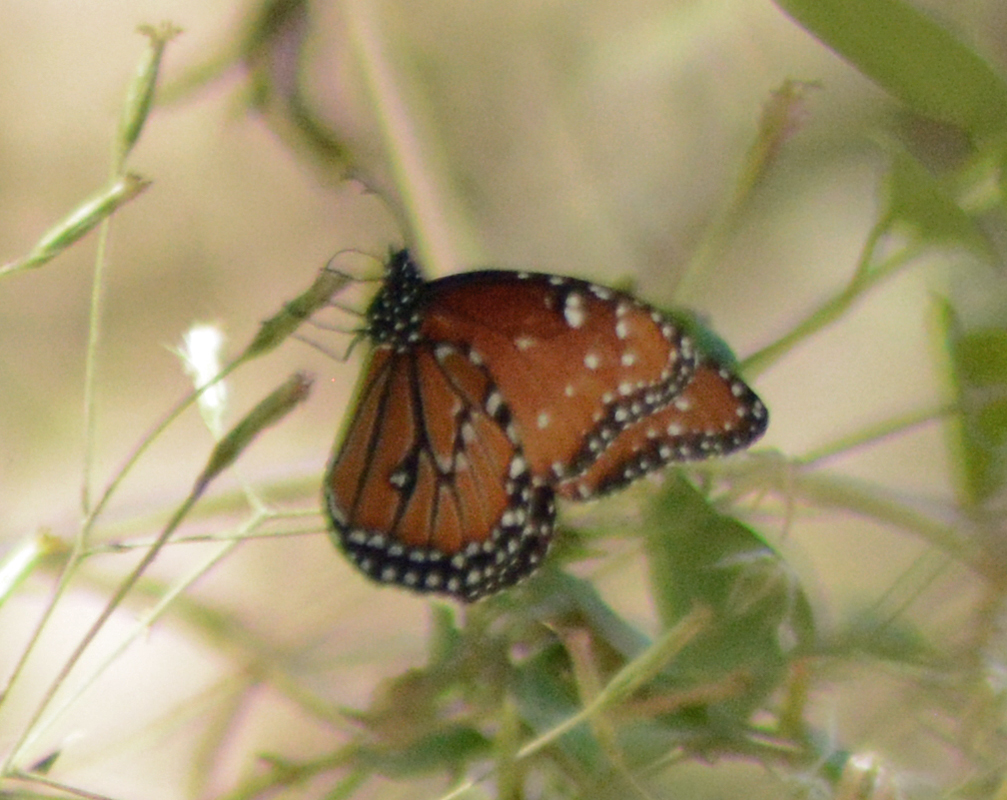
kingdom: Animalia
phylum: Arthropoda
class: Insecta
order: Lepidoptera
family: Nymphalidae
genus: Danaus
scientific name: Danaus gilippus
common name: Queen
